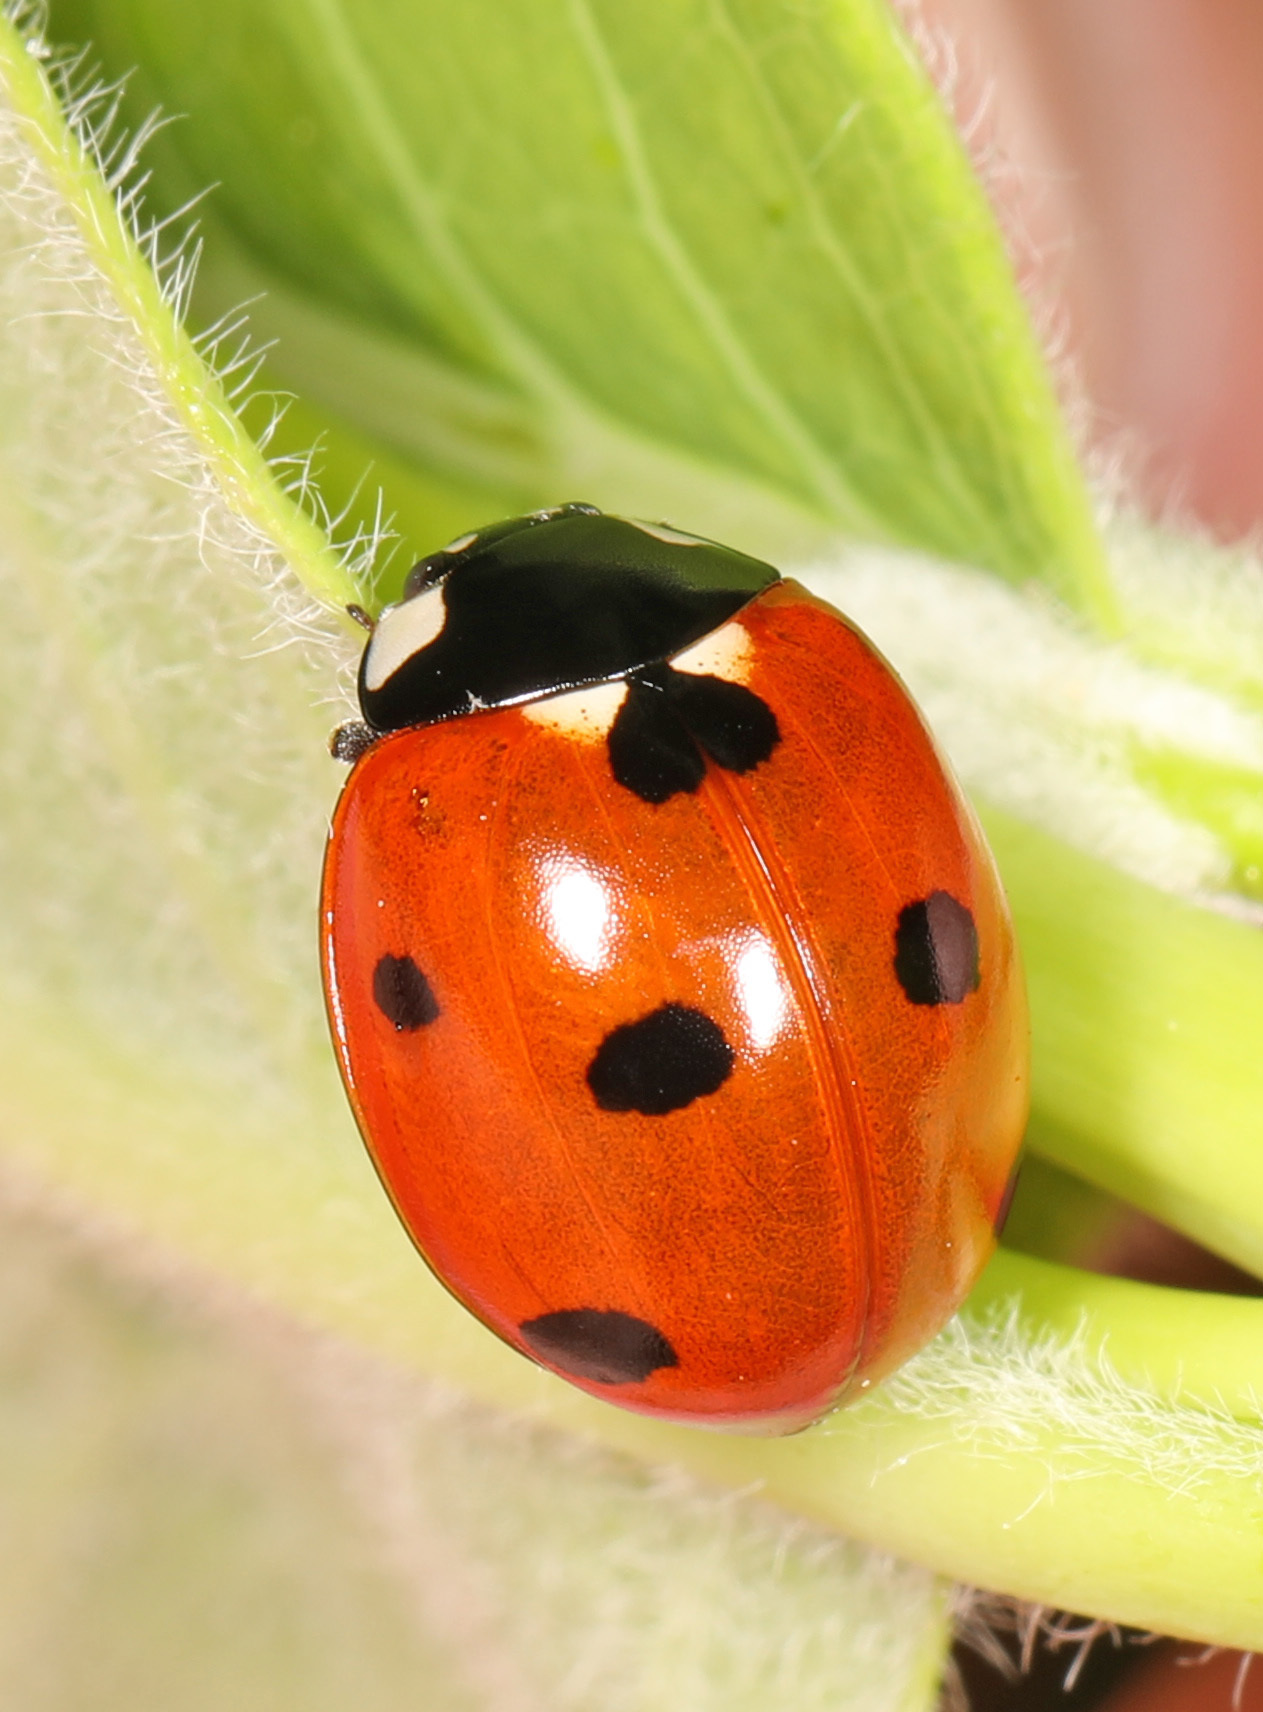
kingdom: Animalia
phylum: Arthropoda
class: Insecta
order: Coleoptera
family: Coccinellidae
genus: Coccinella
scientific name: Coccinella septempunctata
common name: Sevenspotted lady beetle
